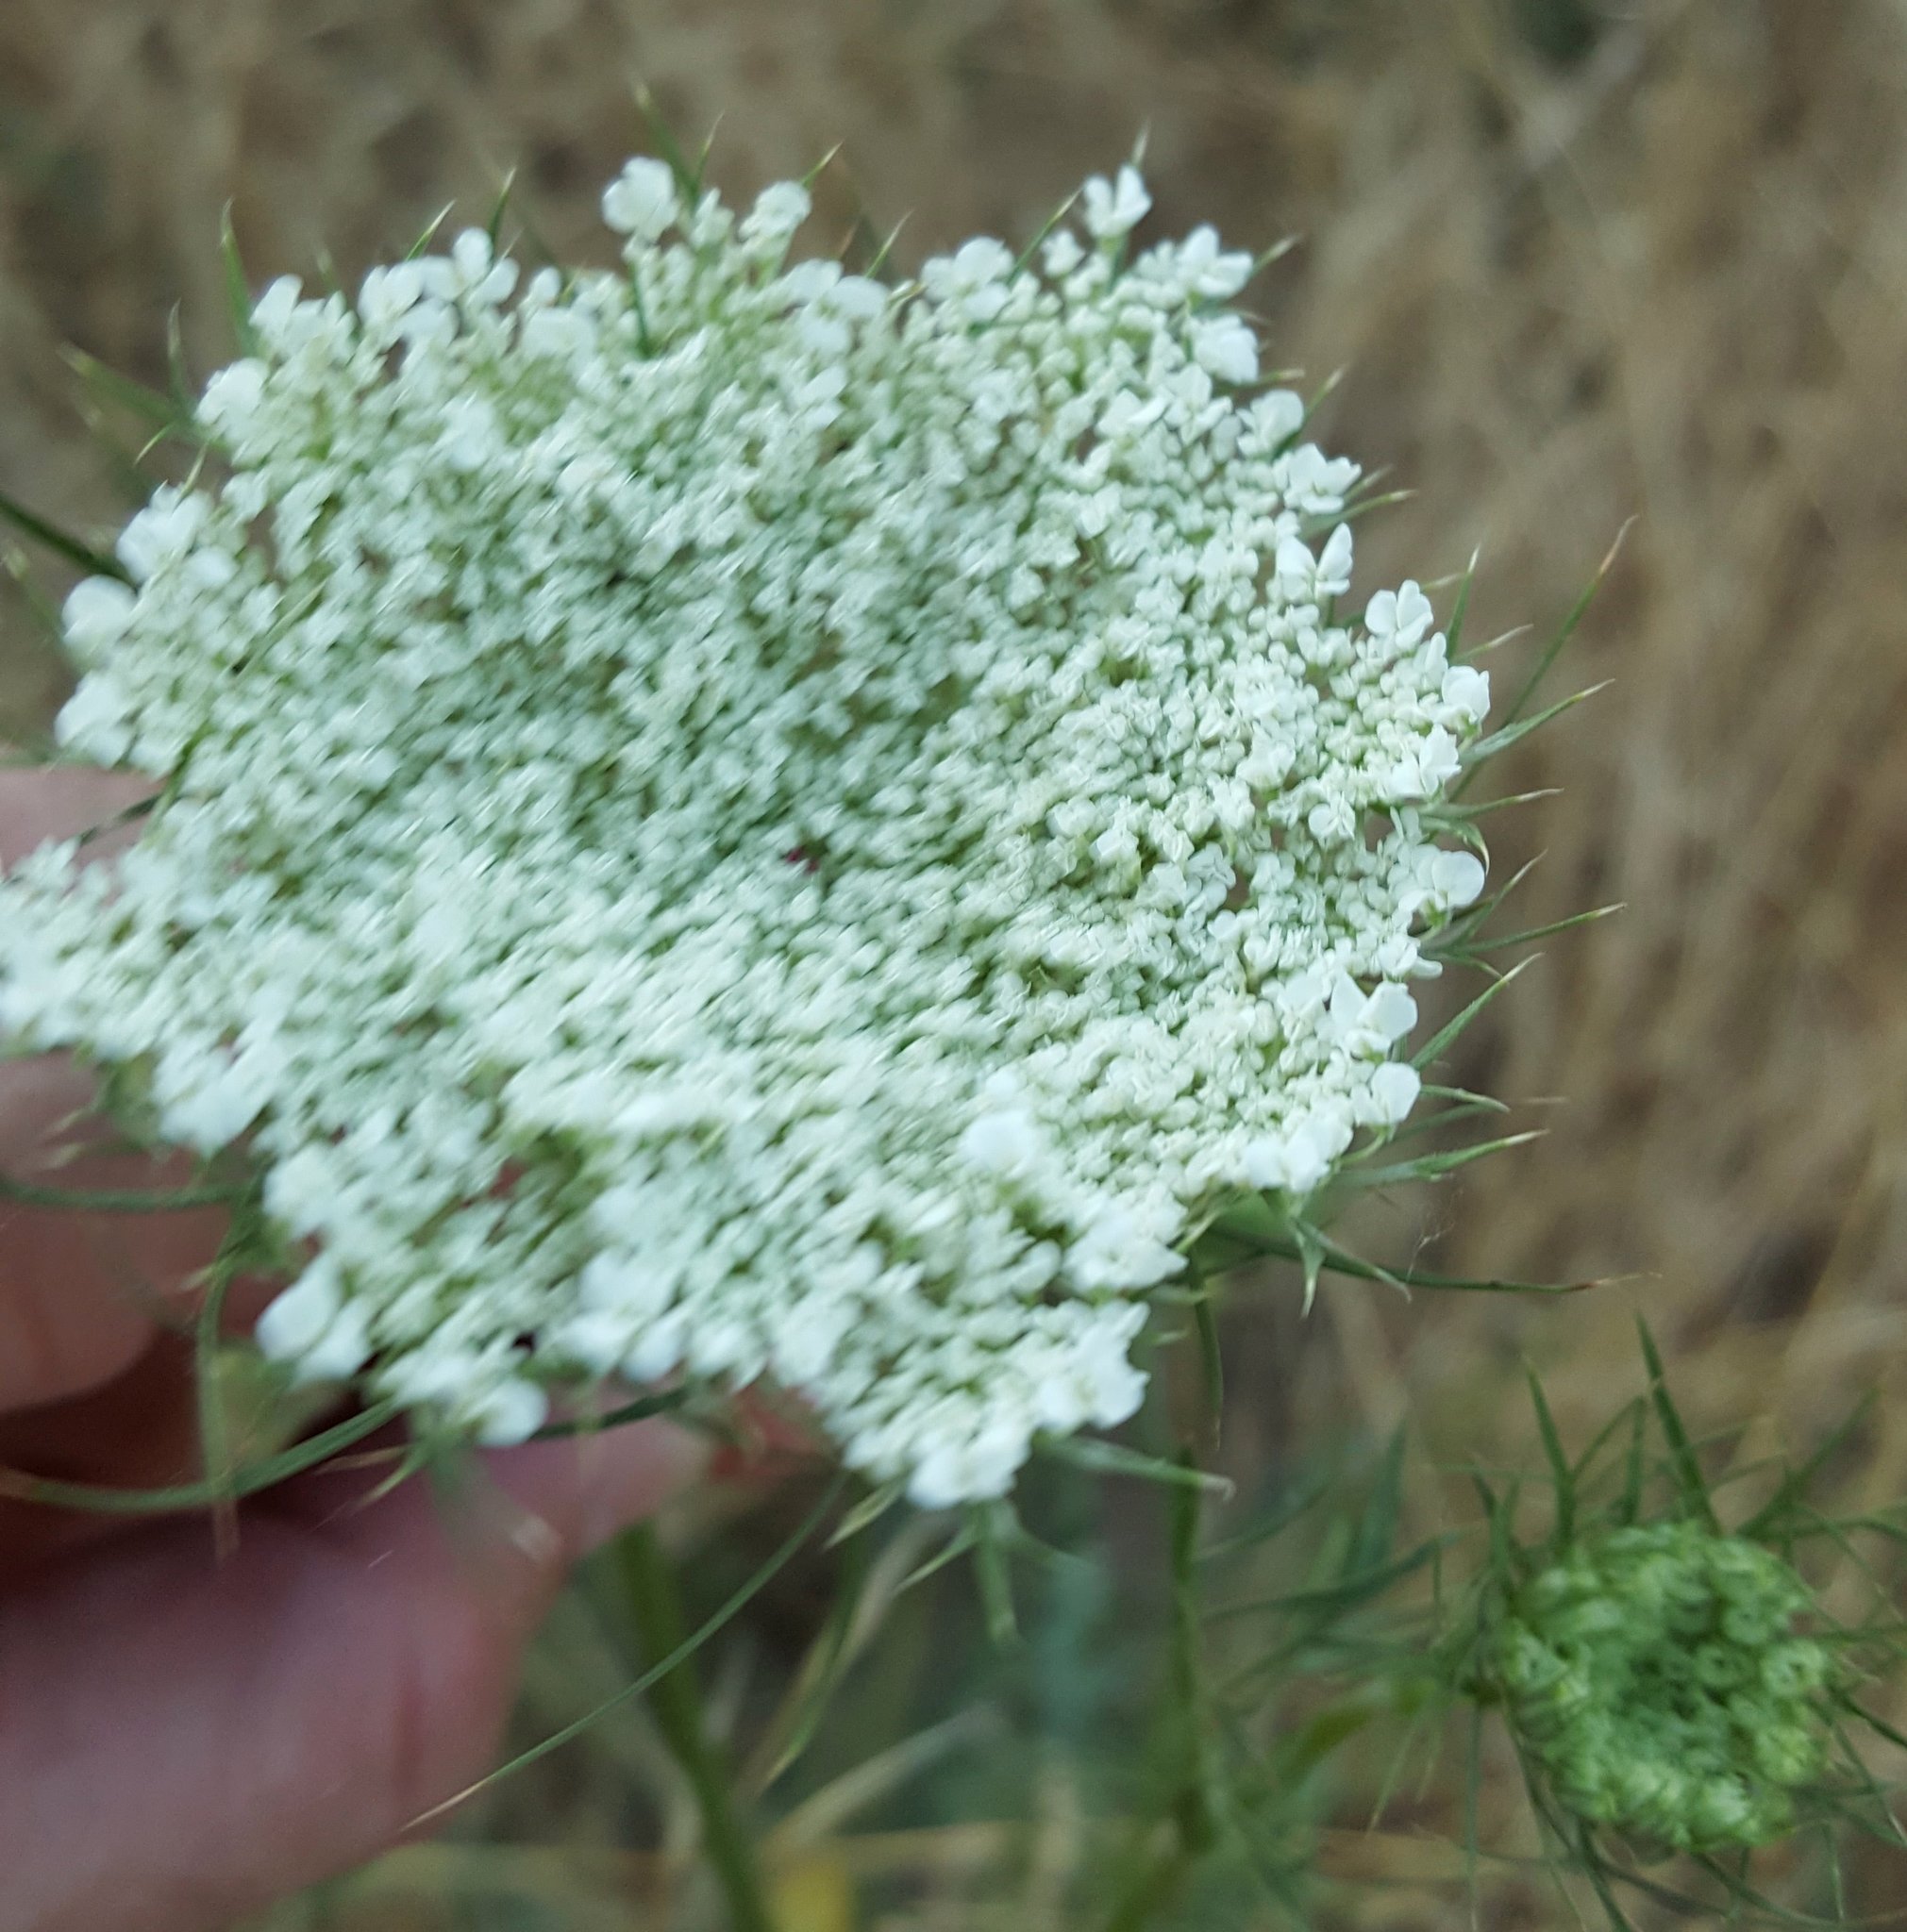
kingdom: Plantae
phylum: Tracheophyta
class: Magnoliopsida
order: Apiales
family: Apiaceae
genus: Daucus
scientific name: Daucus carota
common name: Wild carrot
